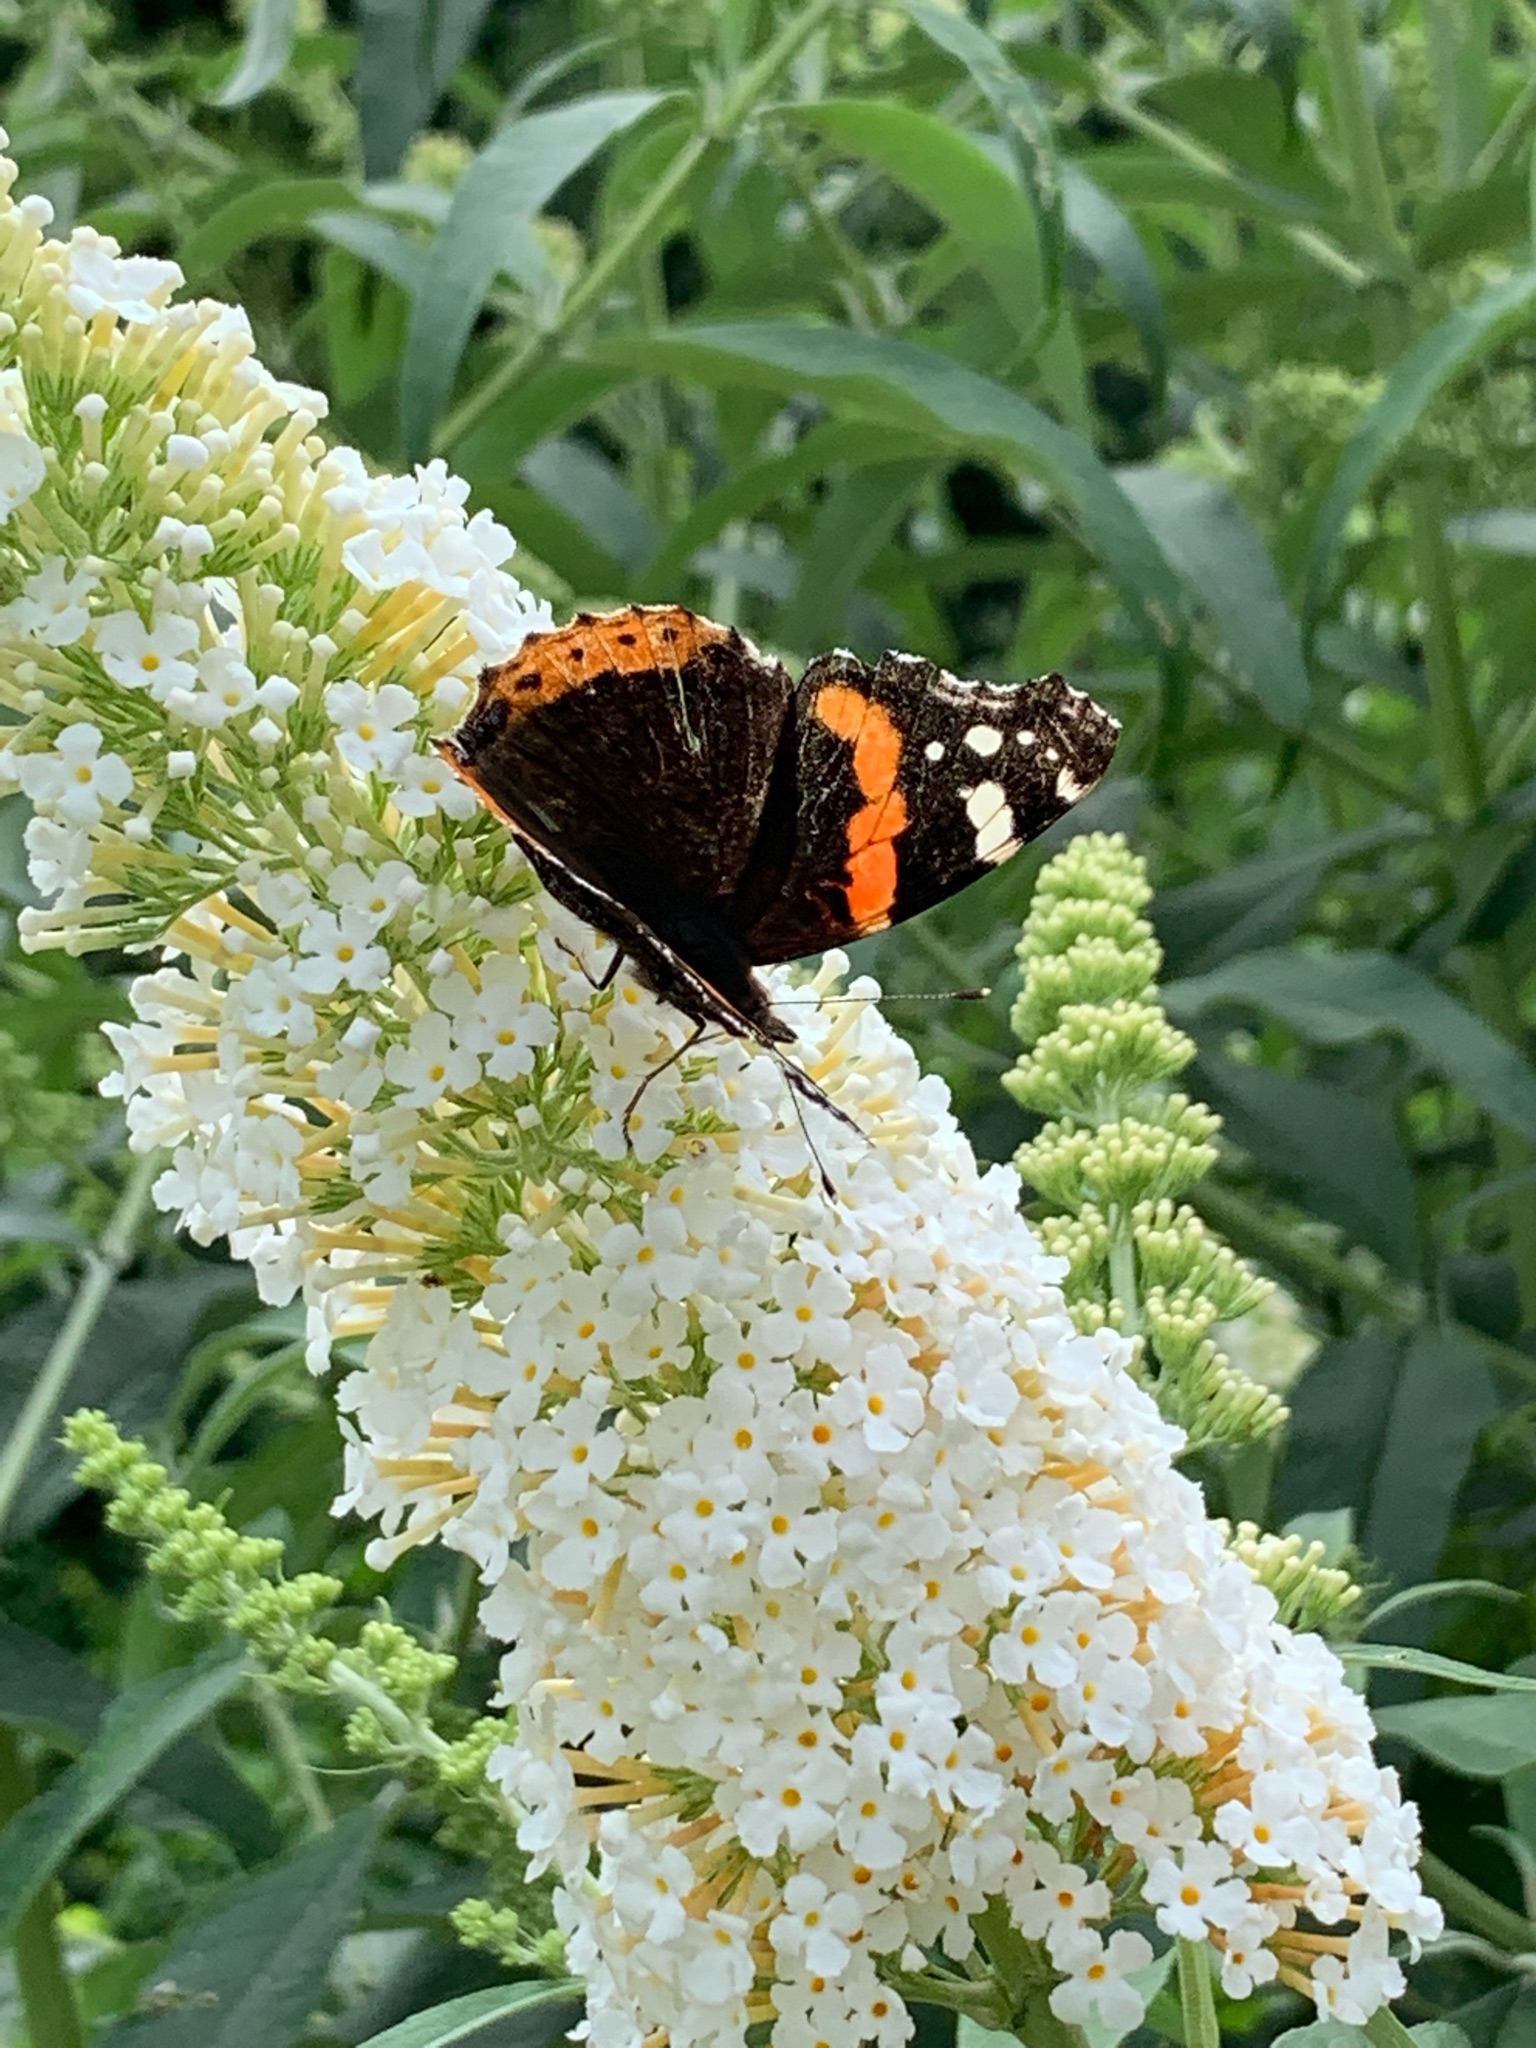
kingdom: Animalia
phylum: Arthropoda
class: Insecta
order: Lepidoptera
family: Nymphalidae
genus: Vanessa
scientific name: Vanessa atalanta
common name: Red admiral
